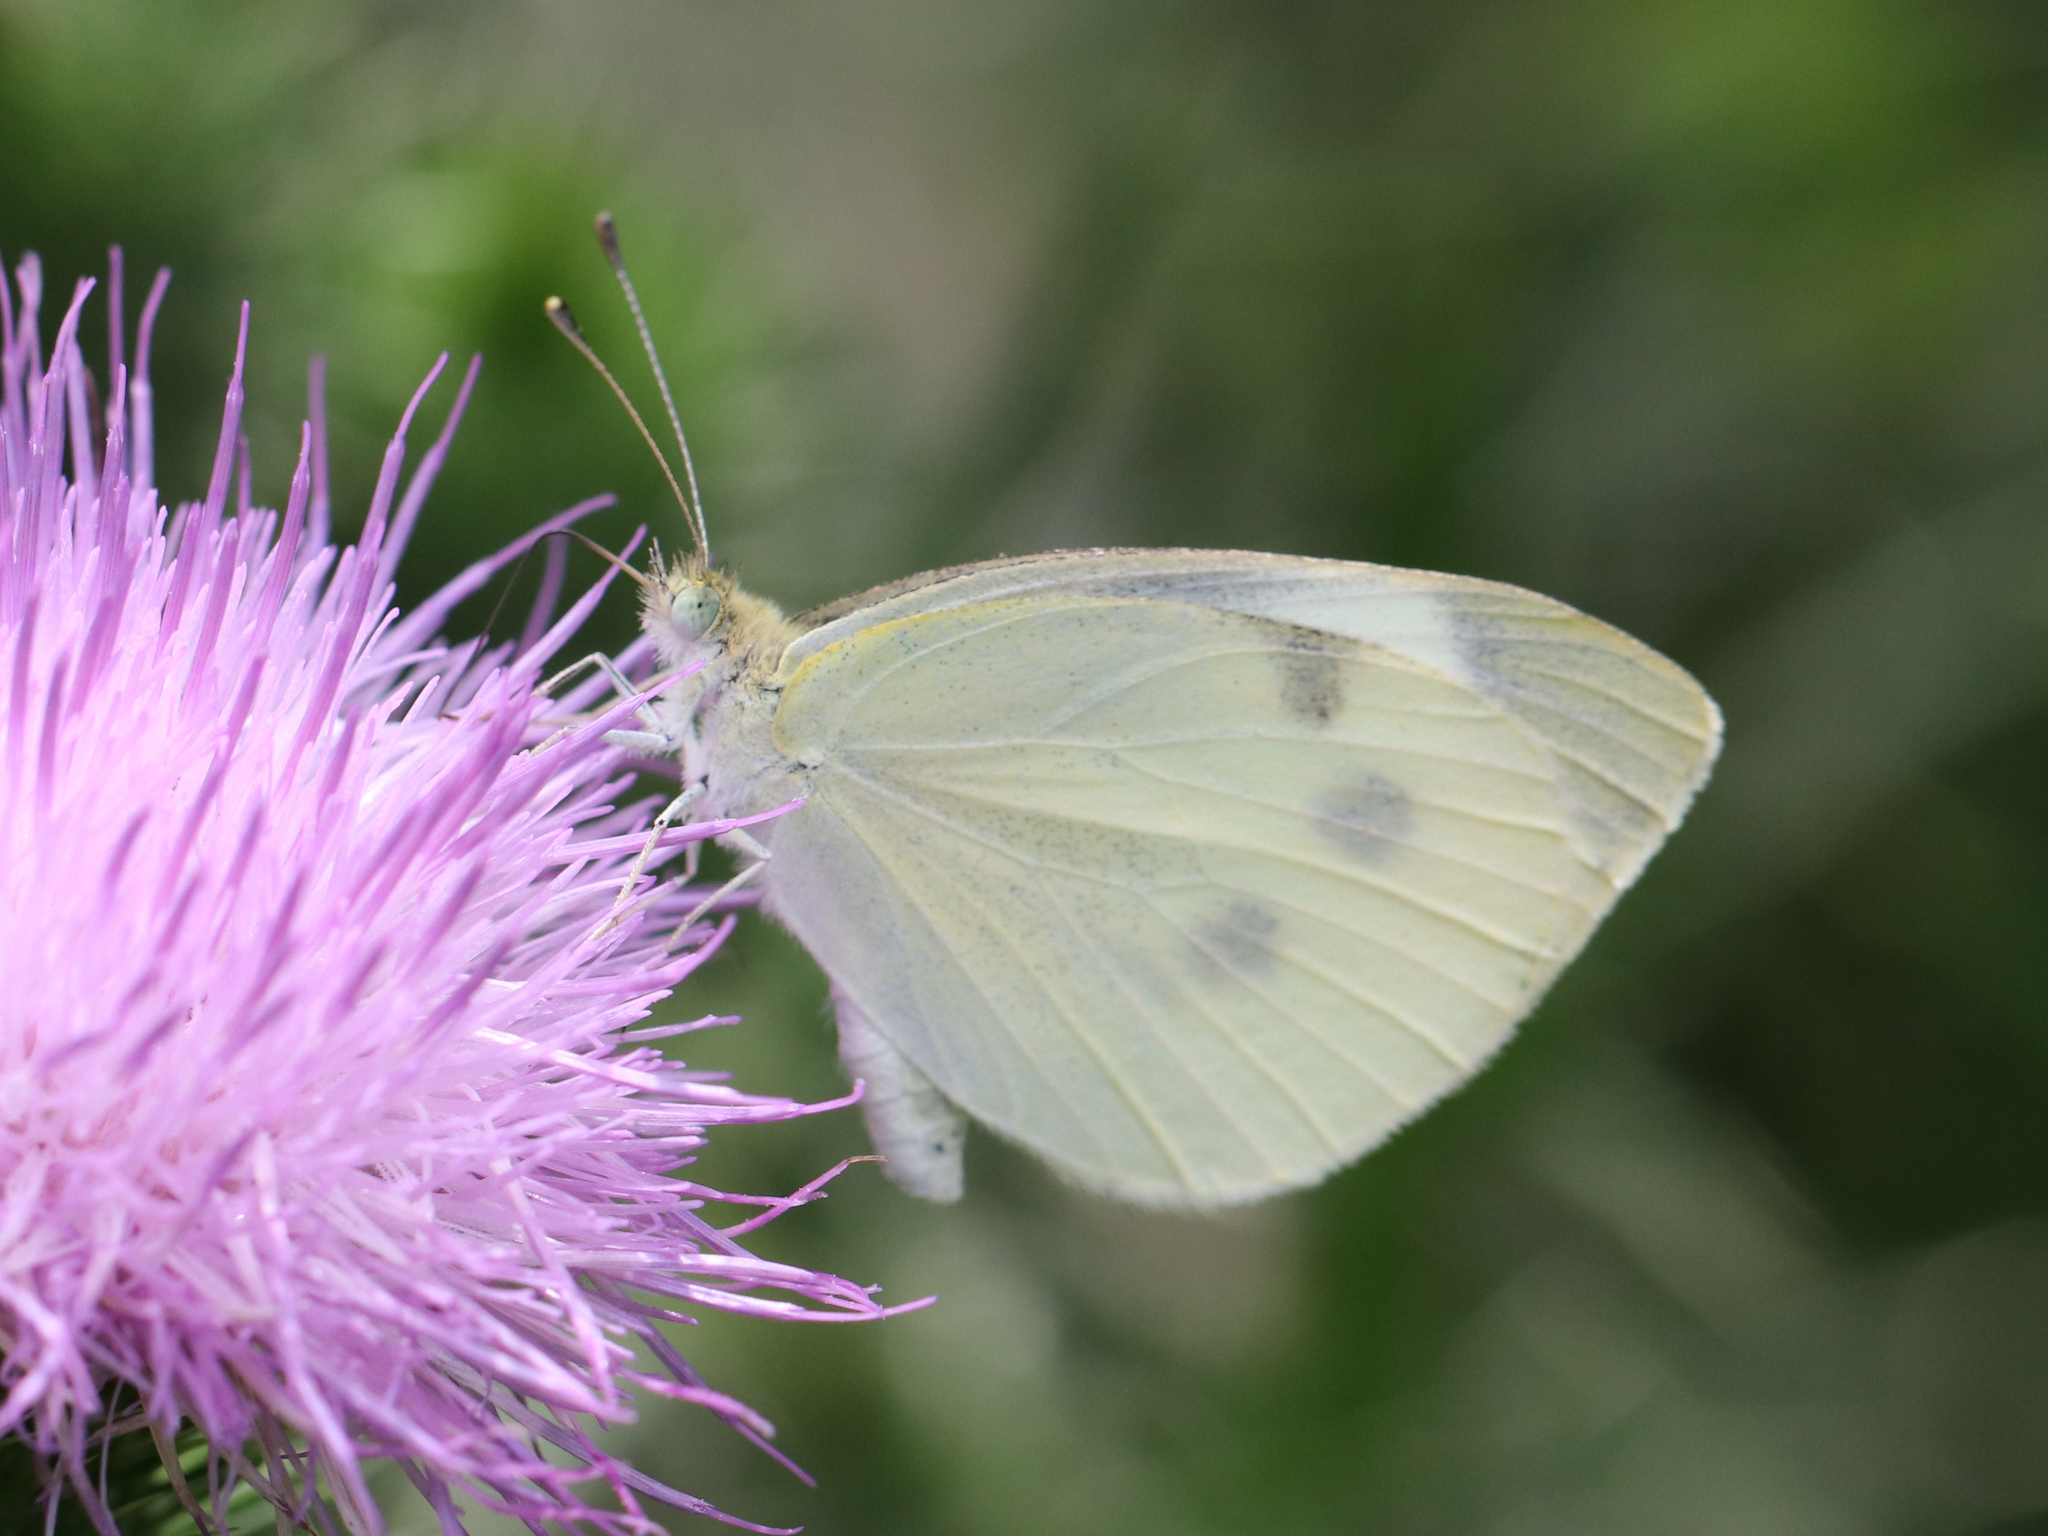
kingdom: Animalia
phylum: Arthropoda
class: Insecta
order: Lepidoptera
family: Pieridae
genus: Pieris
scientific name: Pieris rapae
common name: Small white
